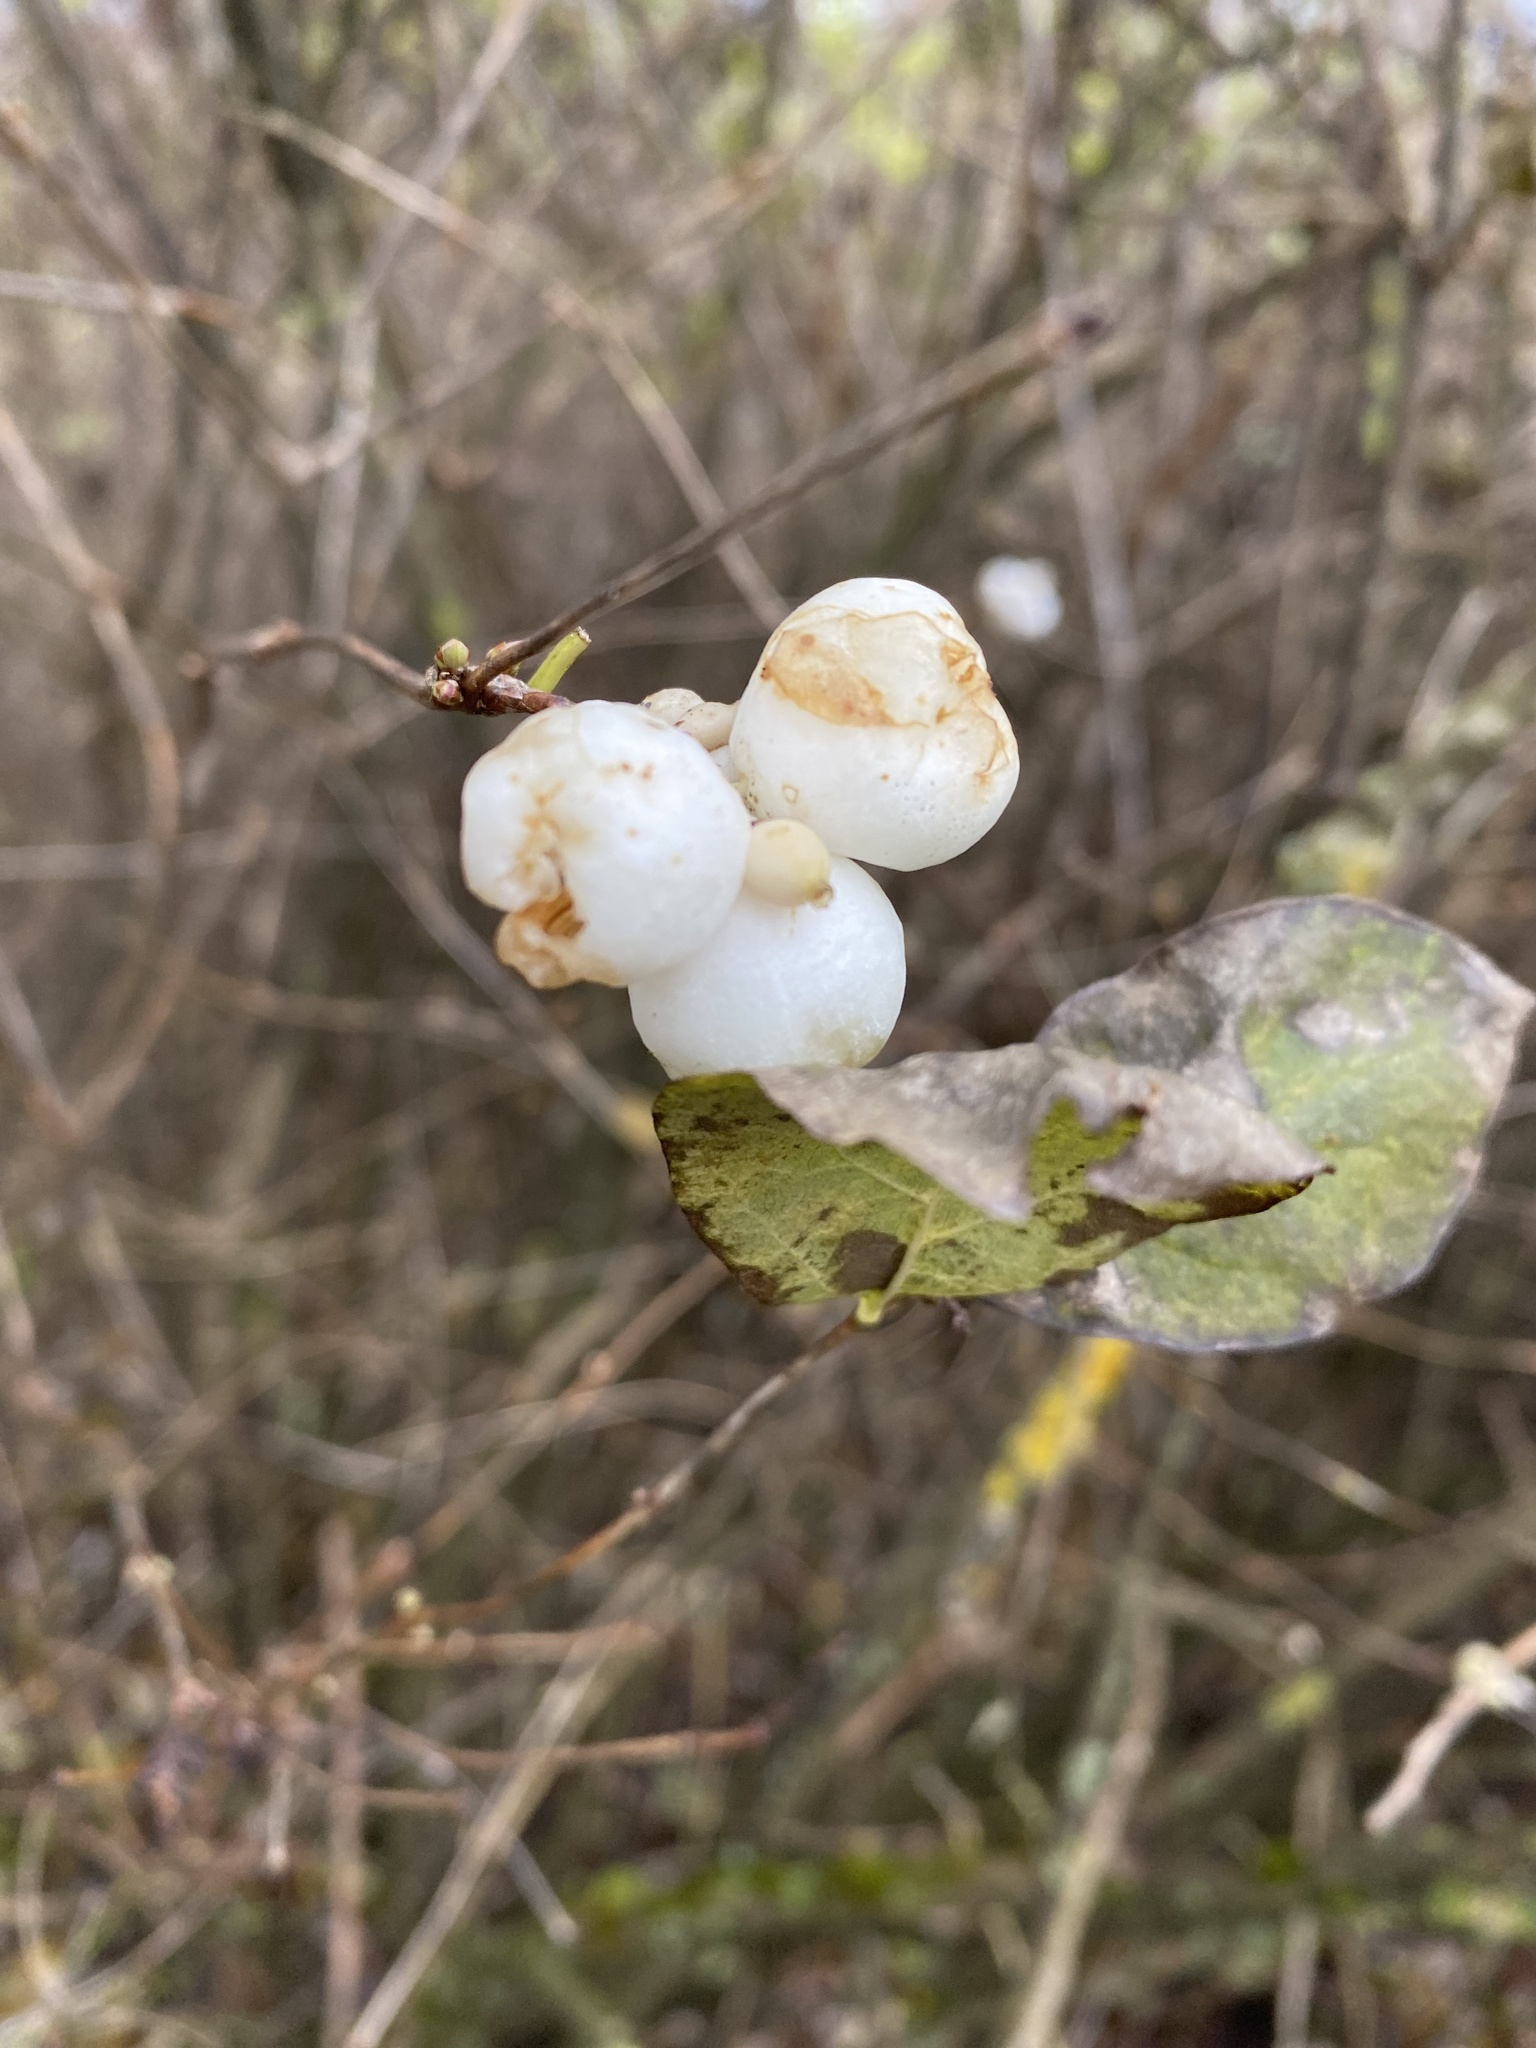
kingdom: Plantae
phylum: Tracheophyta
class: Magnoliopsida
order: Dipsacales
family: Caprifoliaceae
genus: Symphoricarpos
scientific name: Symphoricarpos albus
